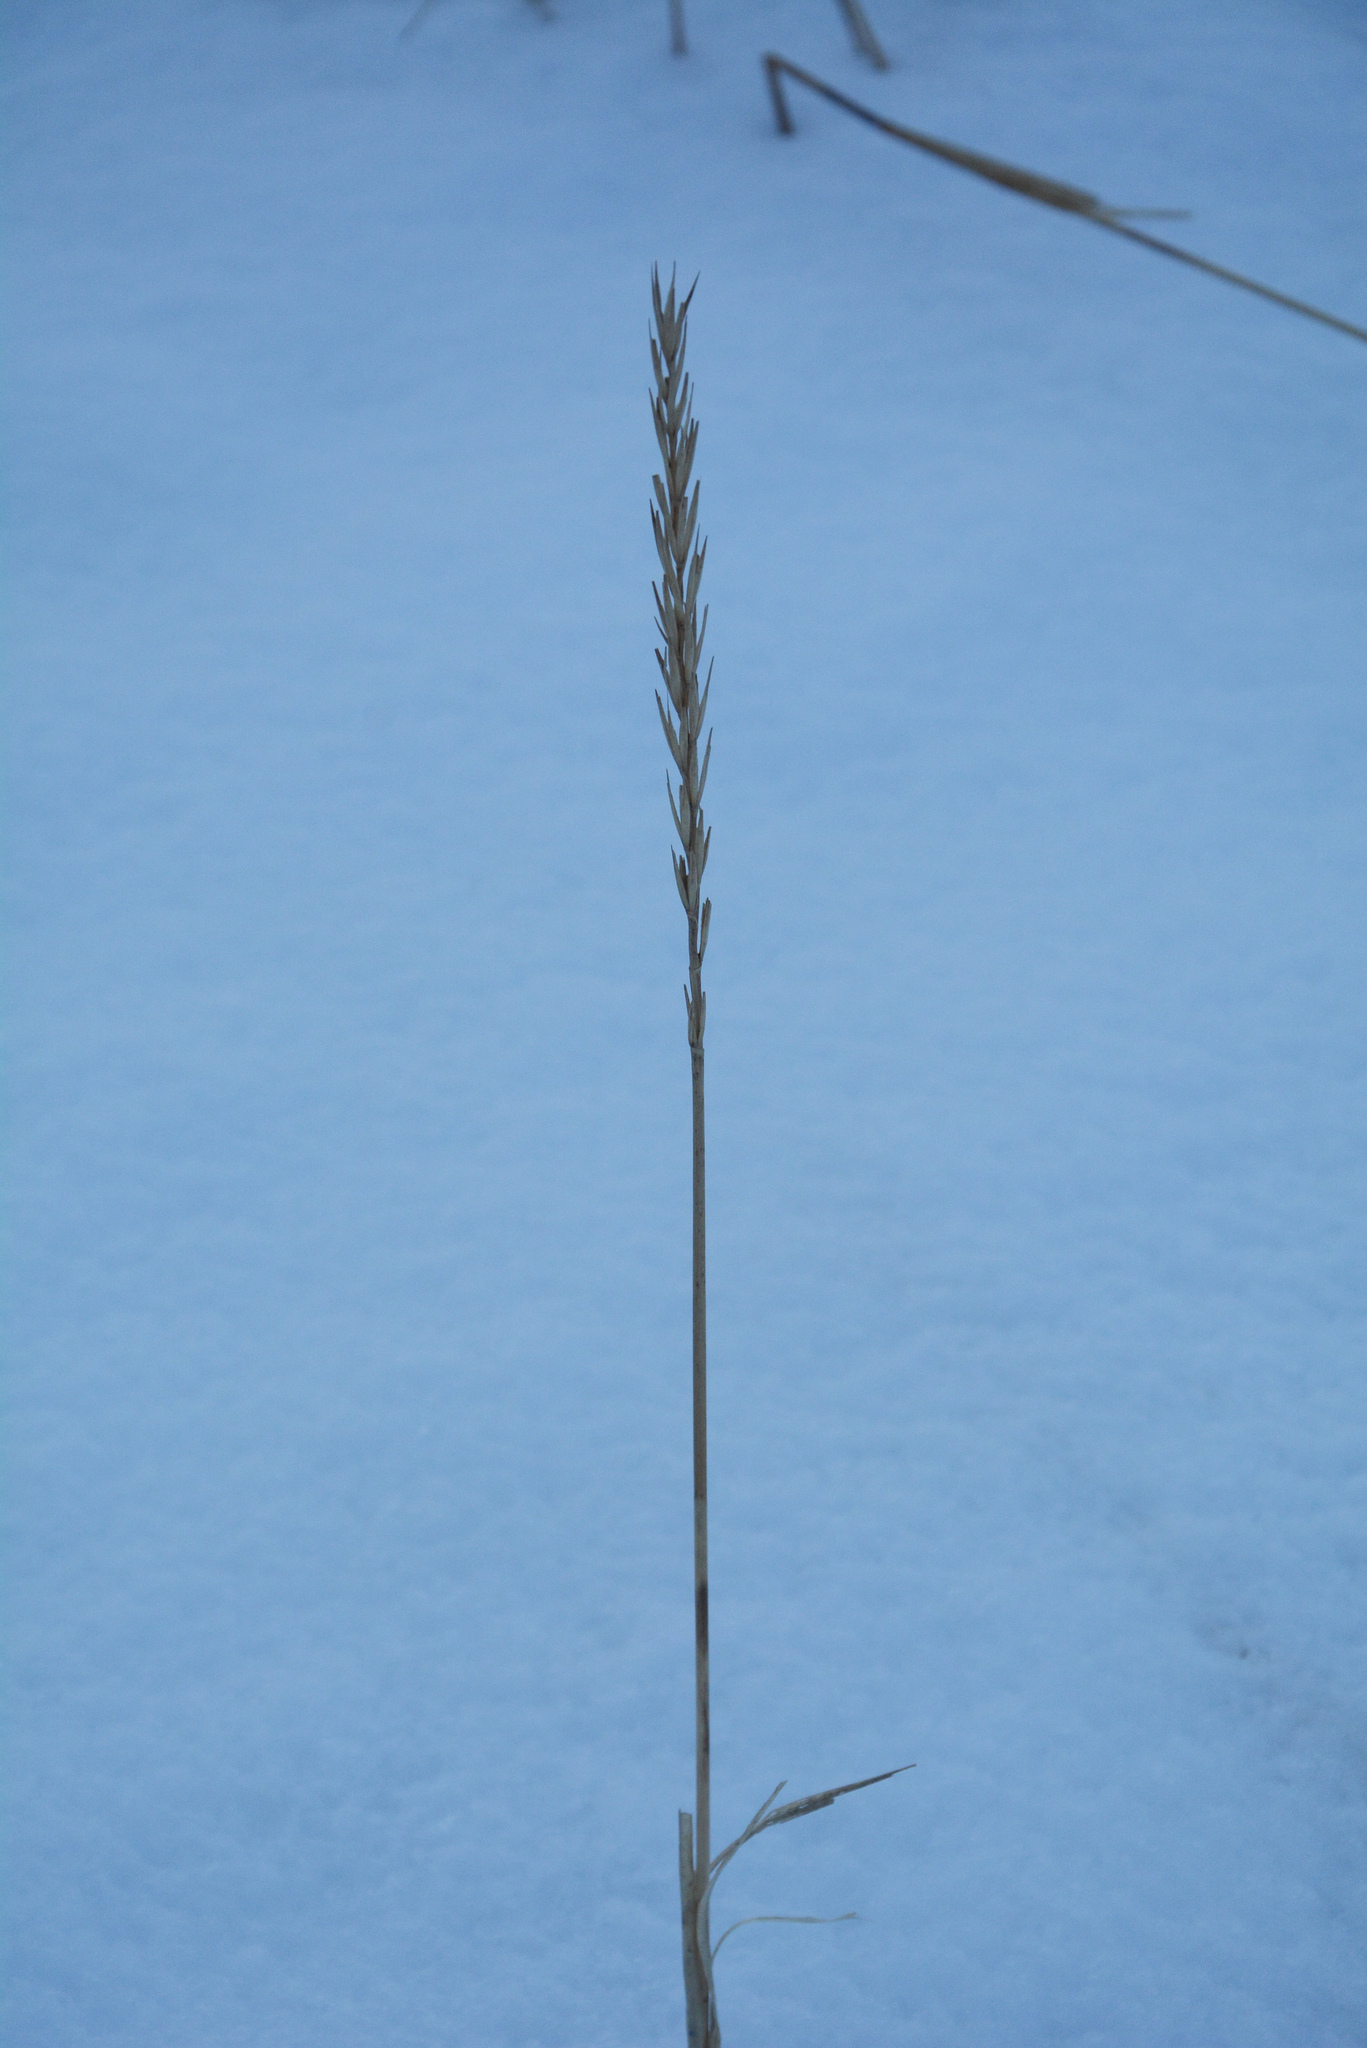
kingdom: Plantae
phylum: Tracheophyta
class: Liliopsida
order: Poales
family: Poaceae
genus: Leymus
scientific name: Leymus arenarius
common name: Lyme-grass
